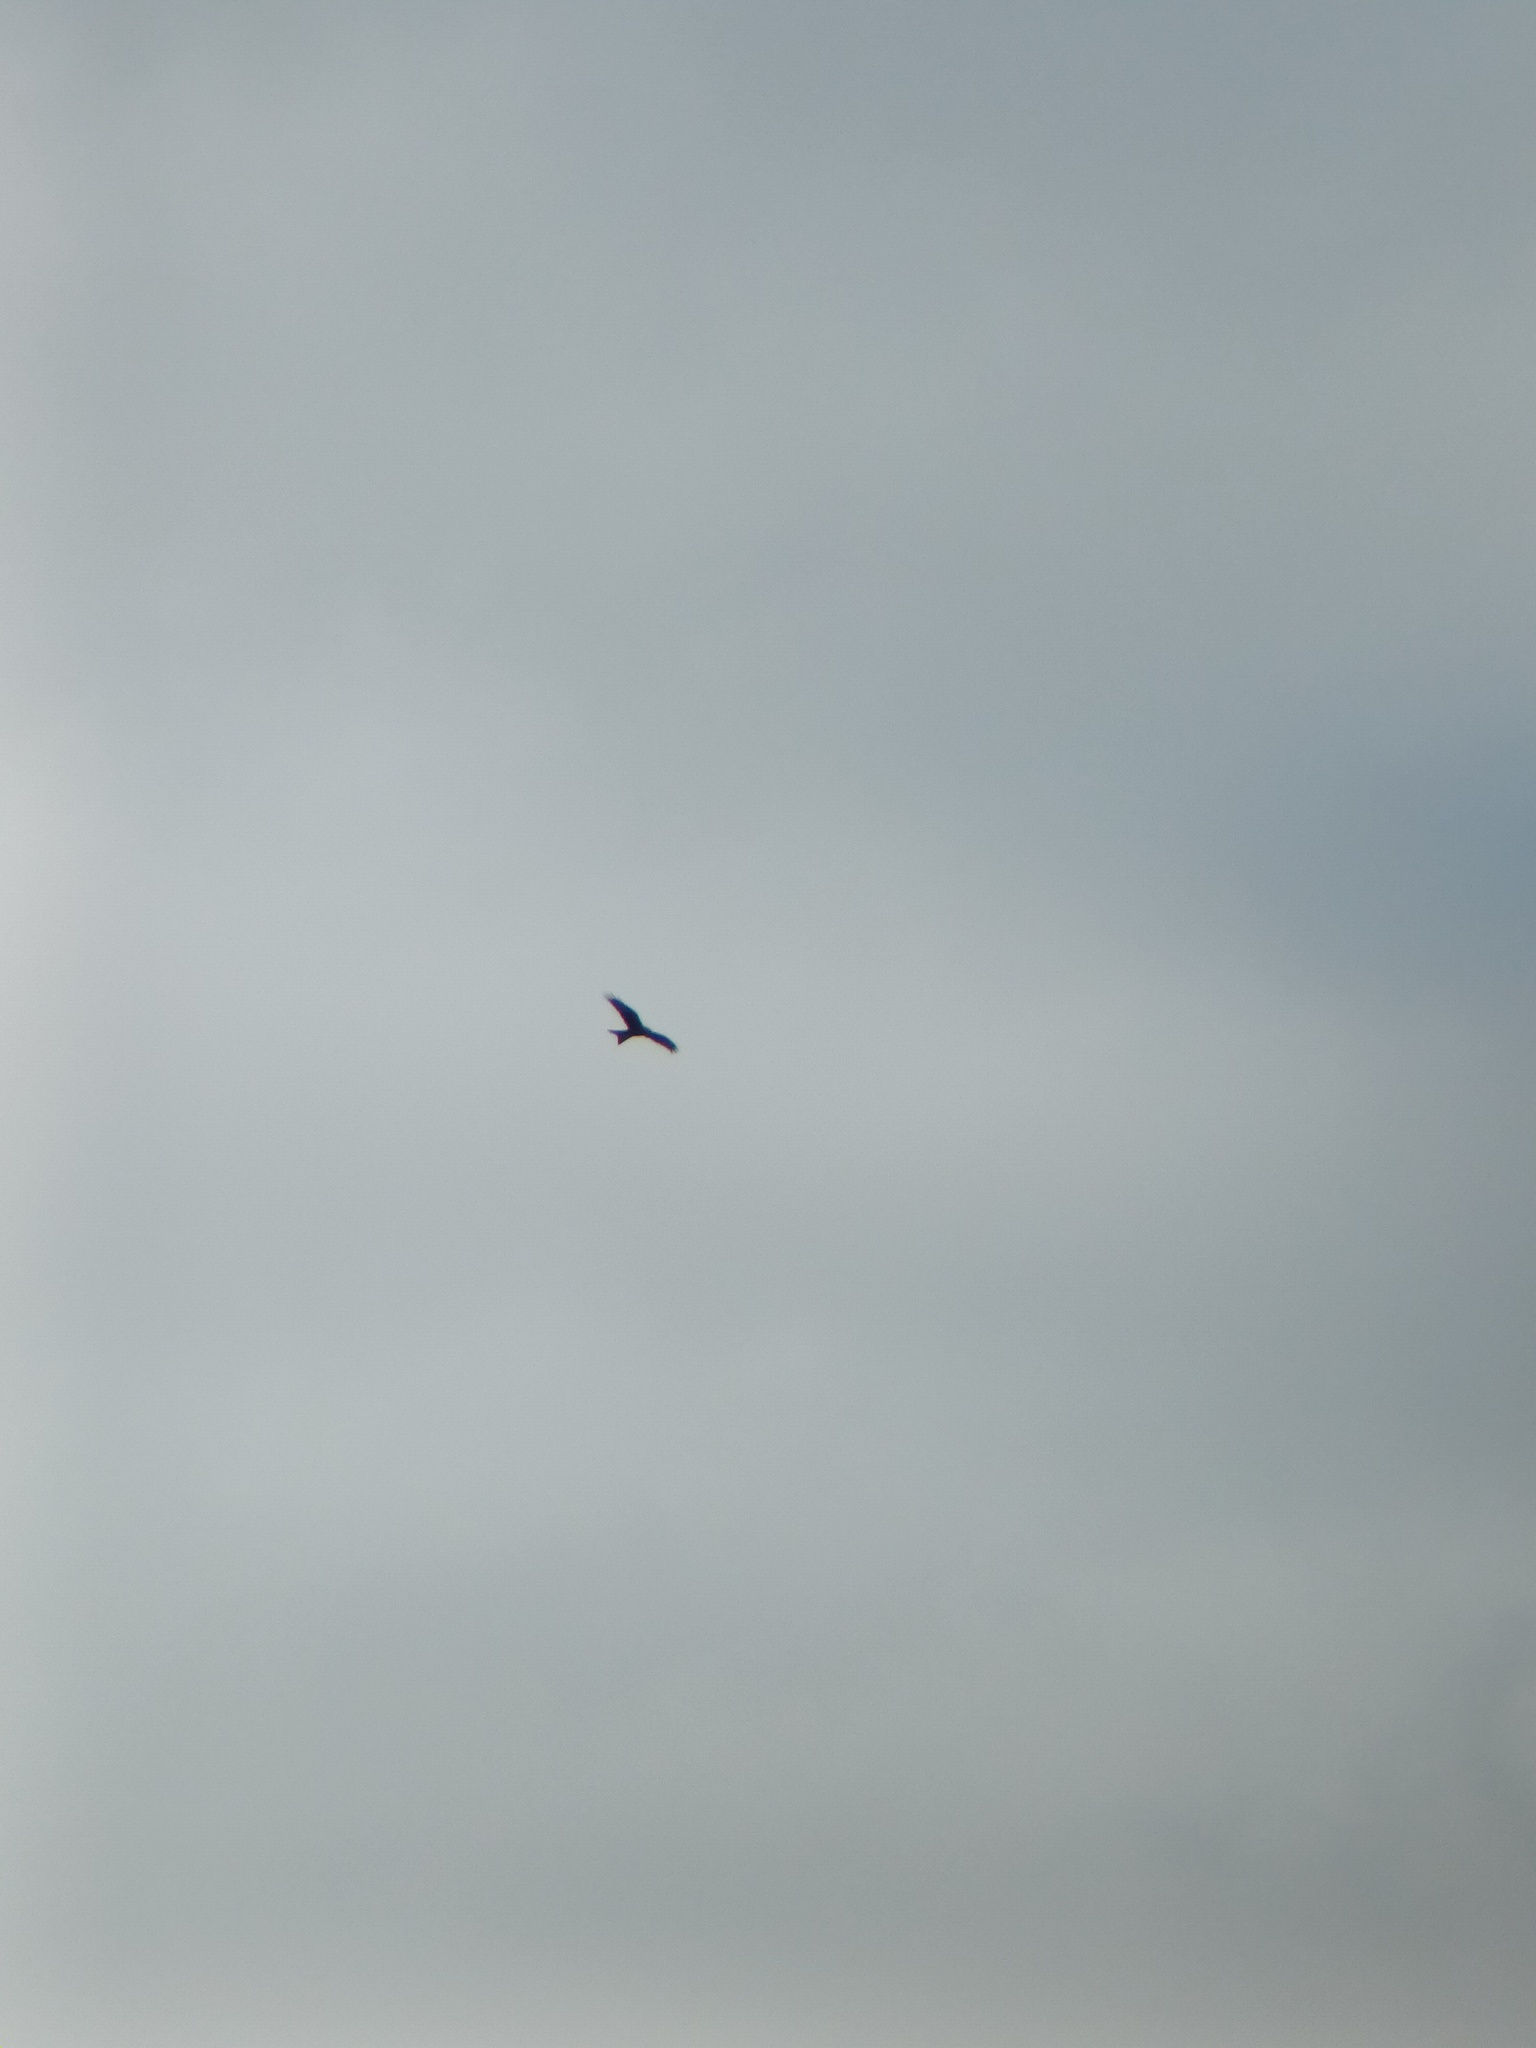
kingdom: Animalia
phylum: Chordata
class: Aves
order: Accipitriformes
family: Accipitridae
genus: Milvus
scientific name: Milvus milvus
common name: Red kite
